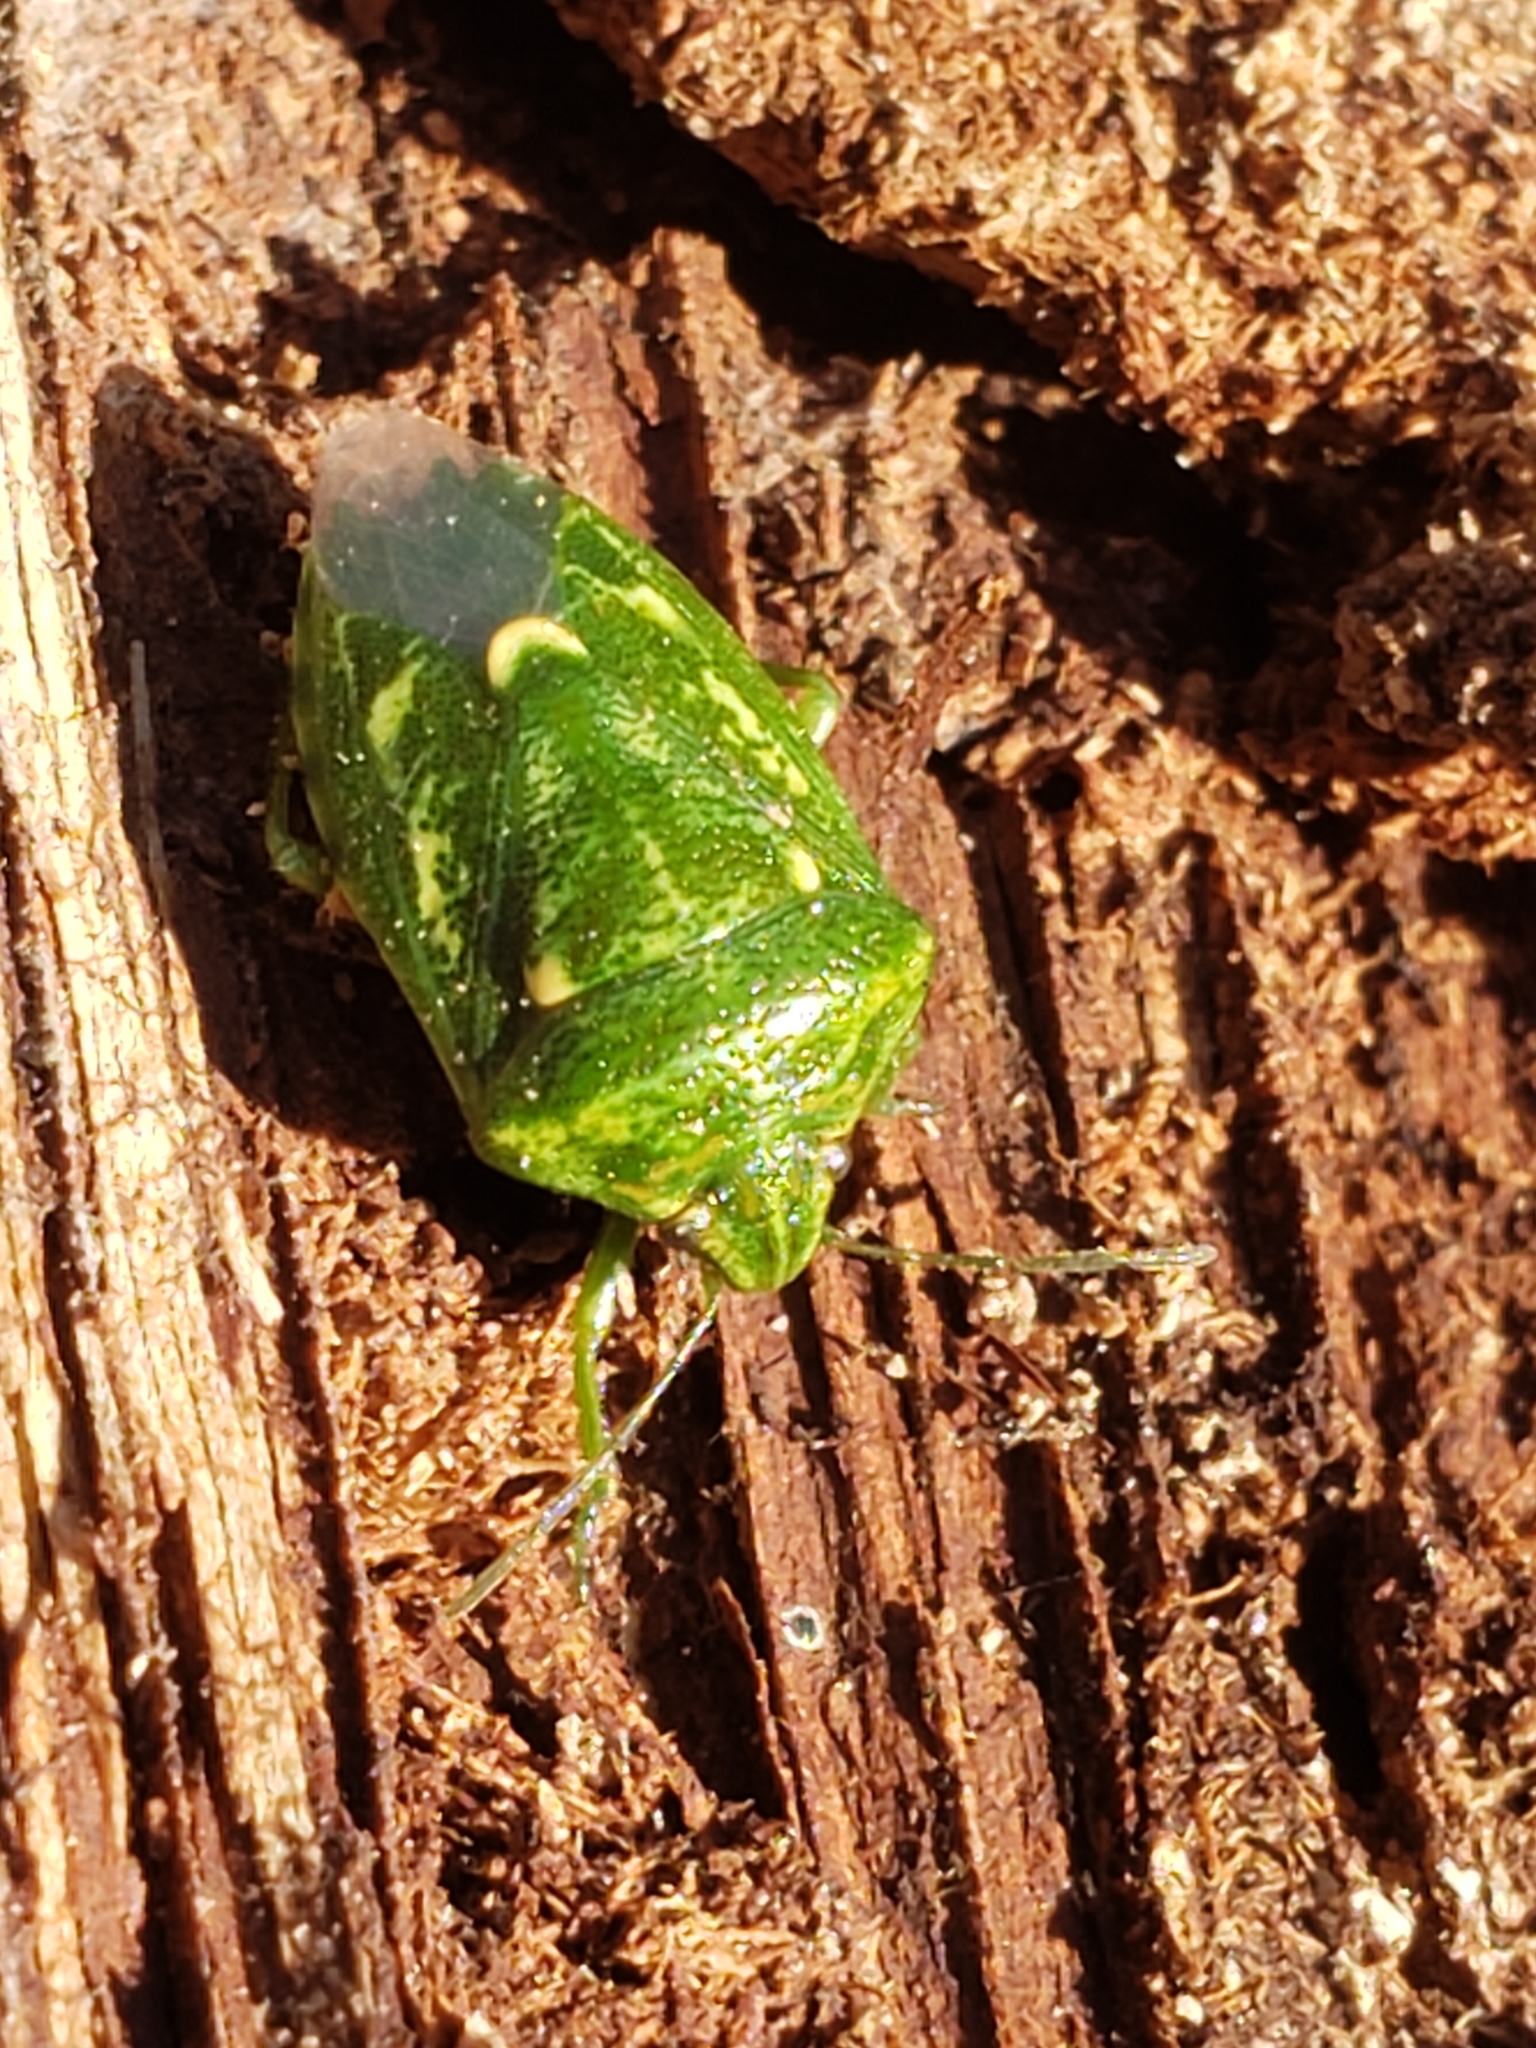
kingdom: Animalia
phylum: Arthropoda
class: Insecta
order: Hemiptera
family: Pentatomidae
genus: Banasa
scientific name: Banasa euchlora
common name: Cedar berry bug
